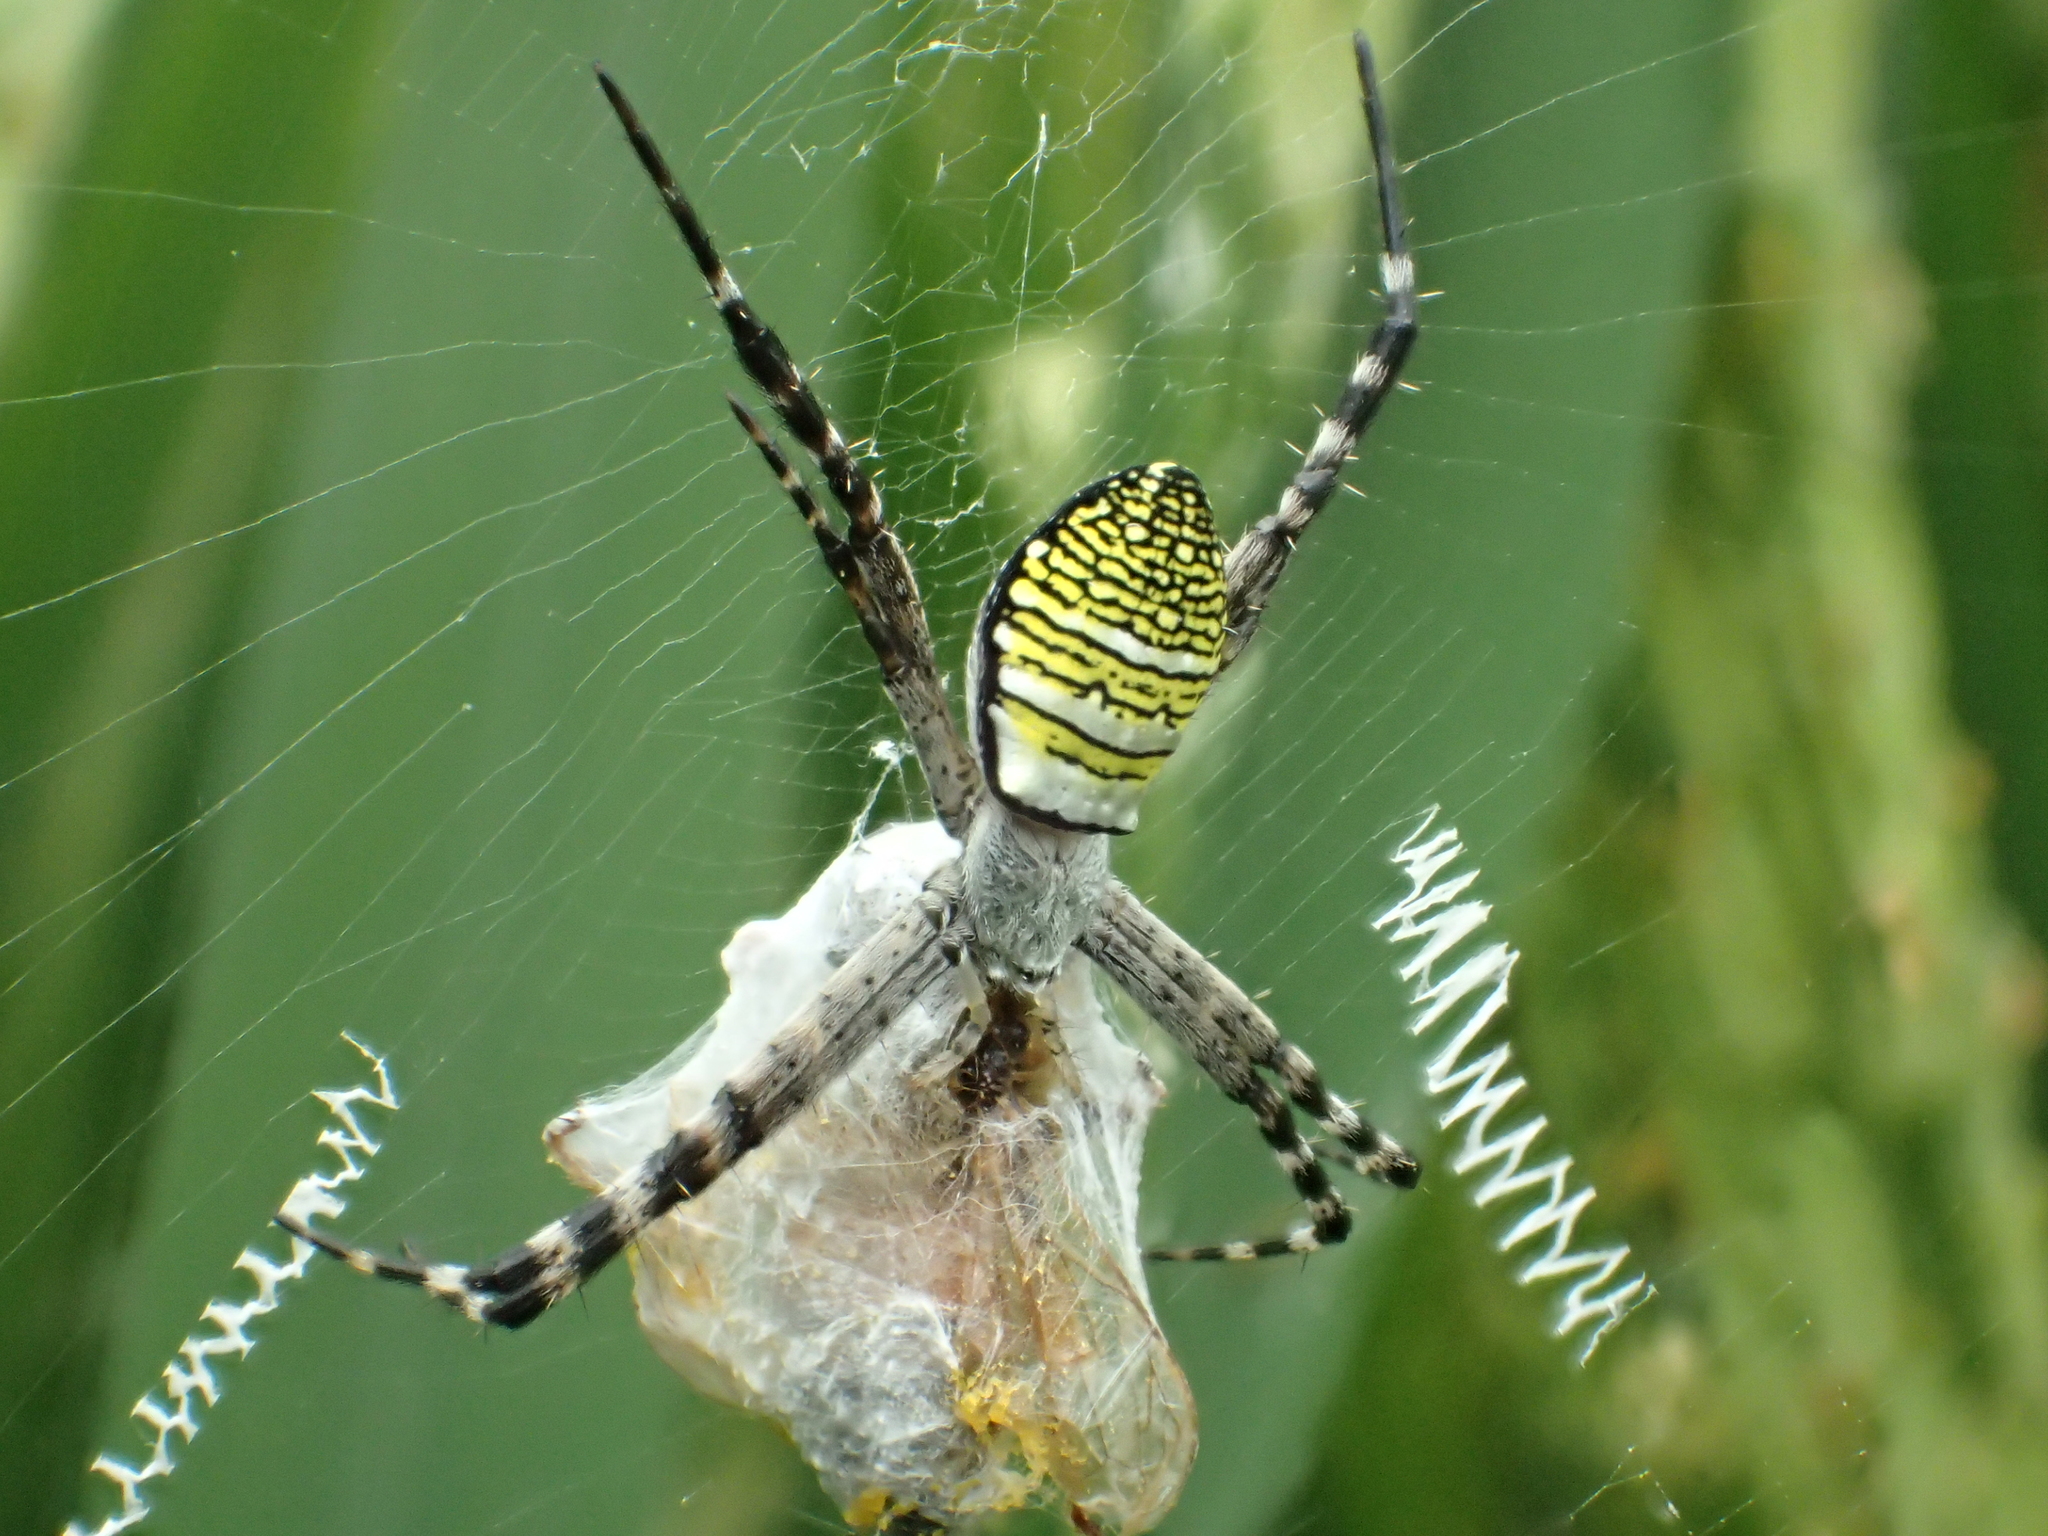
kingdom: Animalia
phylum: Arthropoda
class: Arachnida
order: Araneae
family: Araneidae
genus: Argiope
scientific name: Argiope aemula
